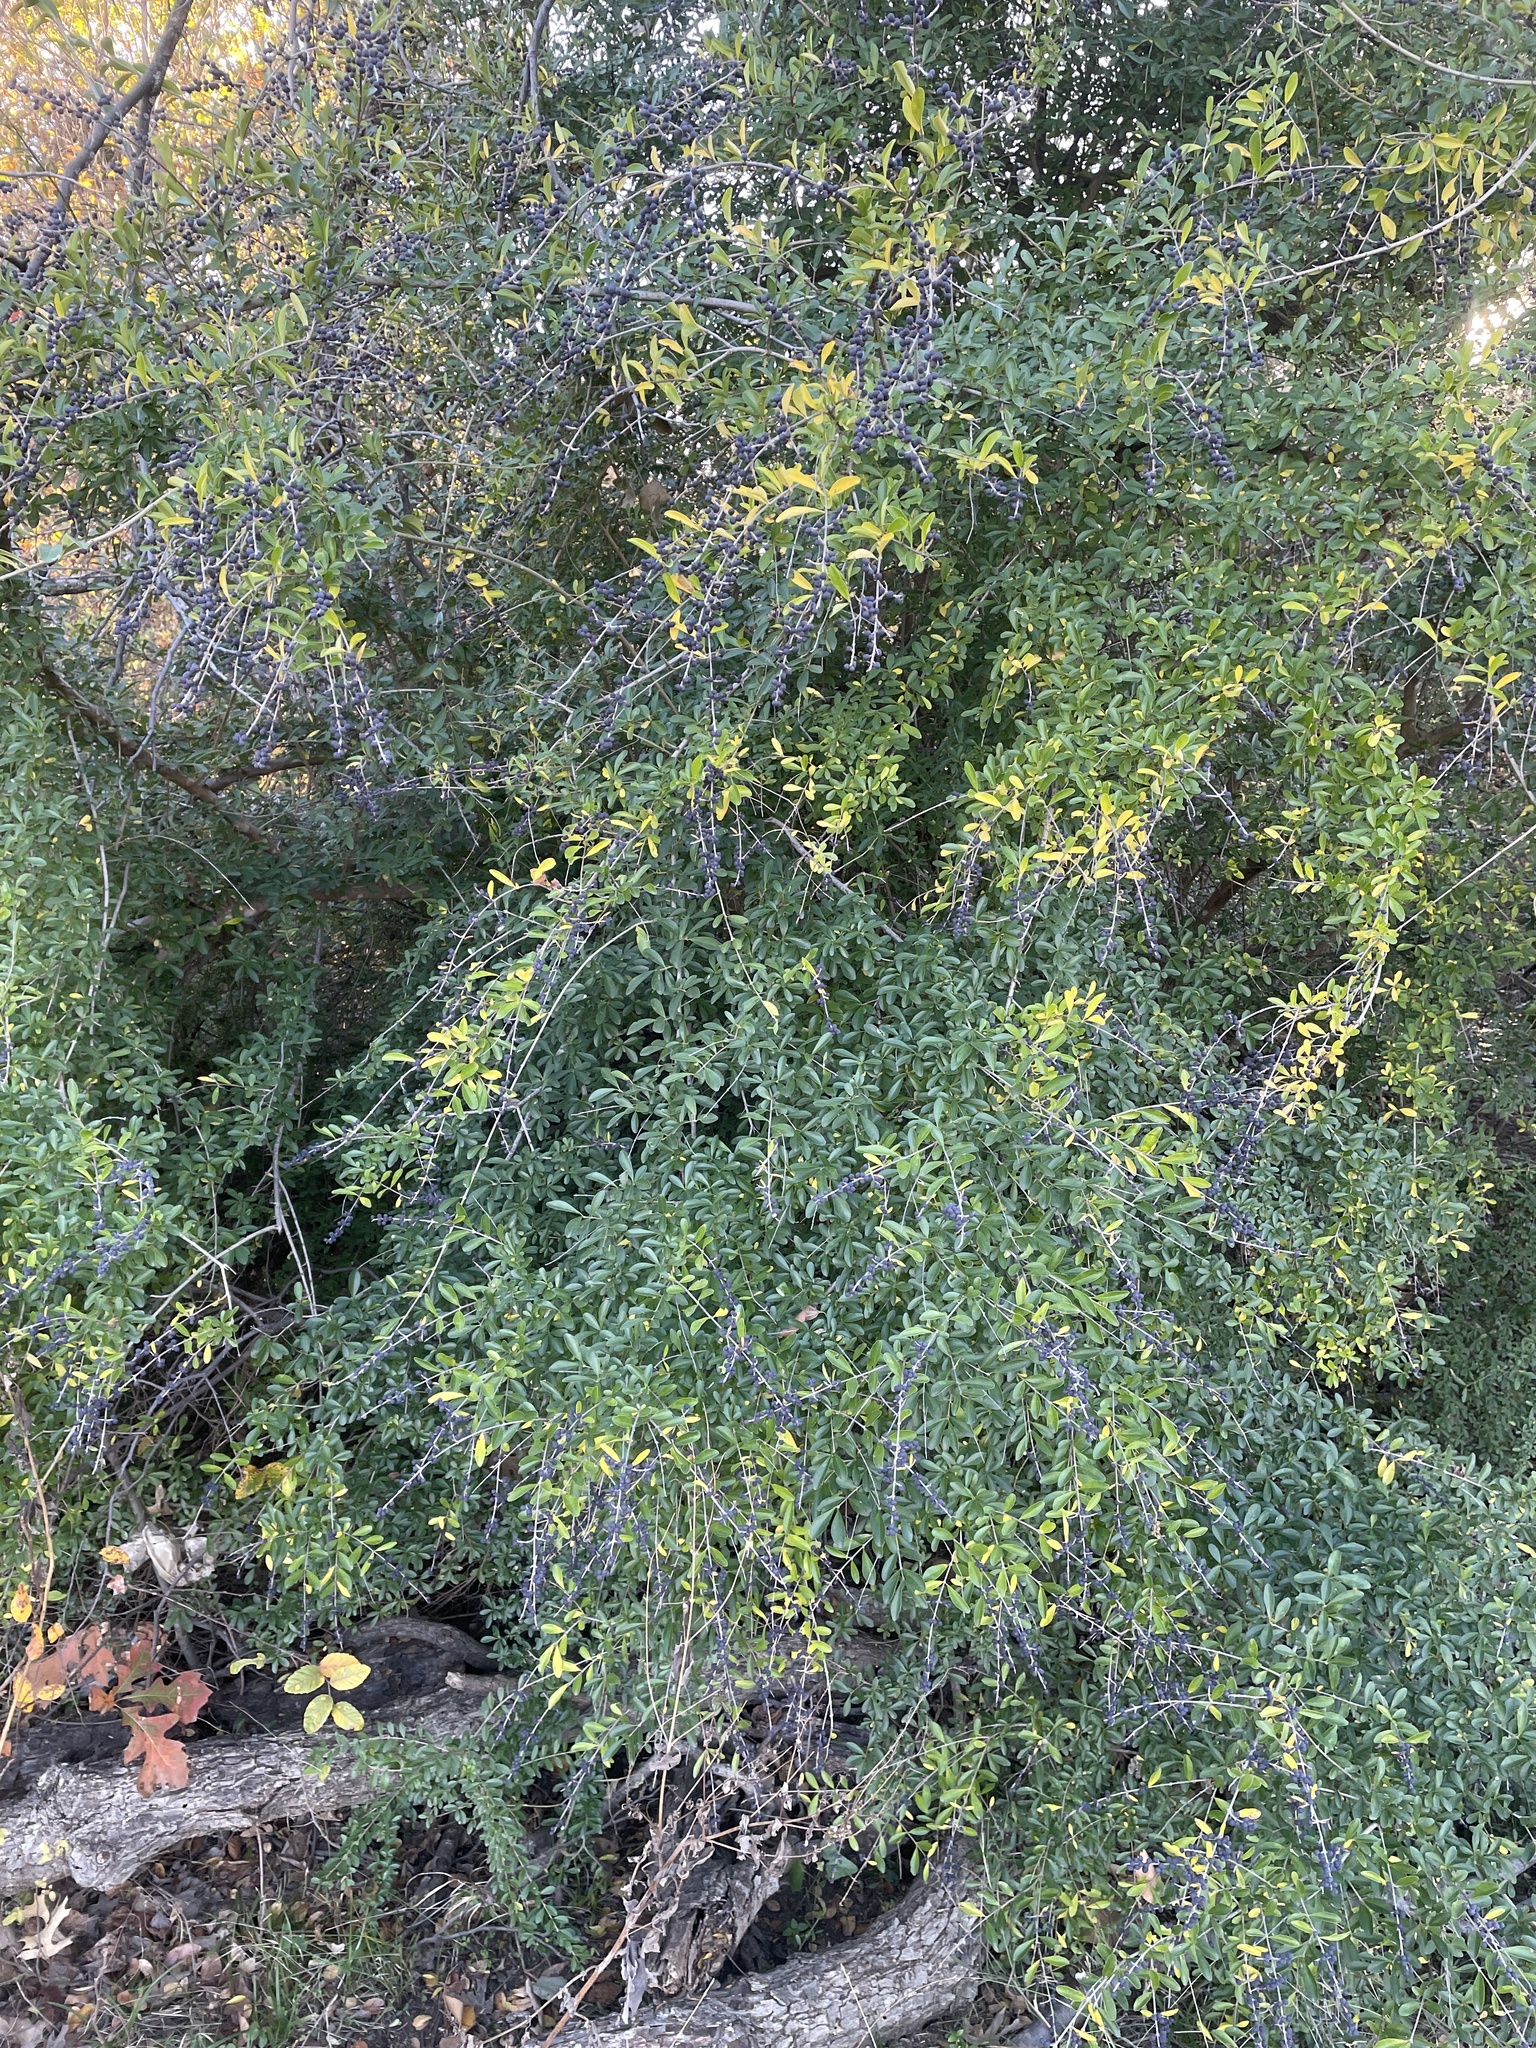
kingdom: Plantae
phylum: Tracheophyta
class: Magnoliopsida
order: Lamiales
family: Oleaceae
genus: Ligustrum
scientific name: Ligustrum quihoui
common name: Waxyleaf privet
